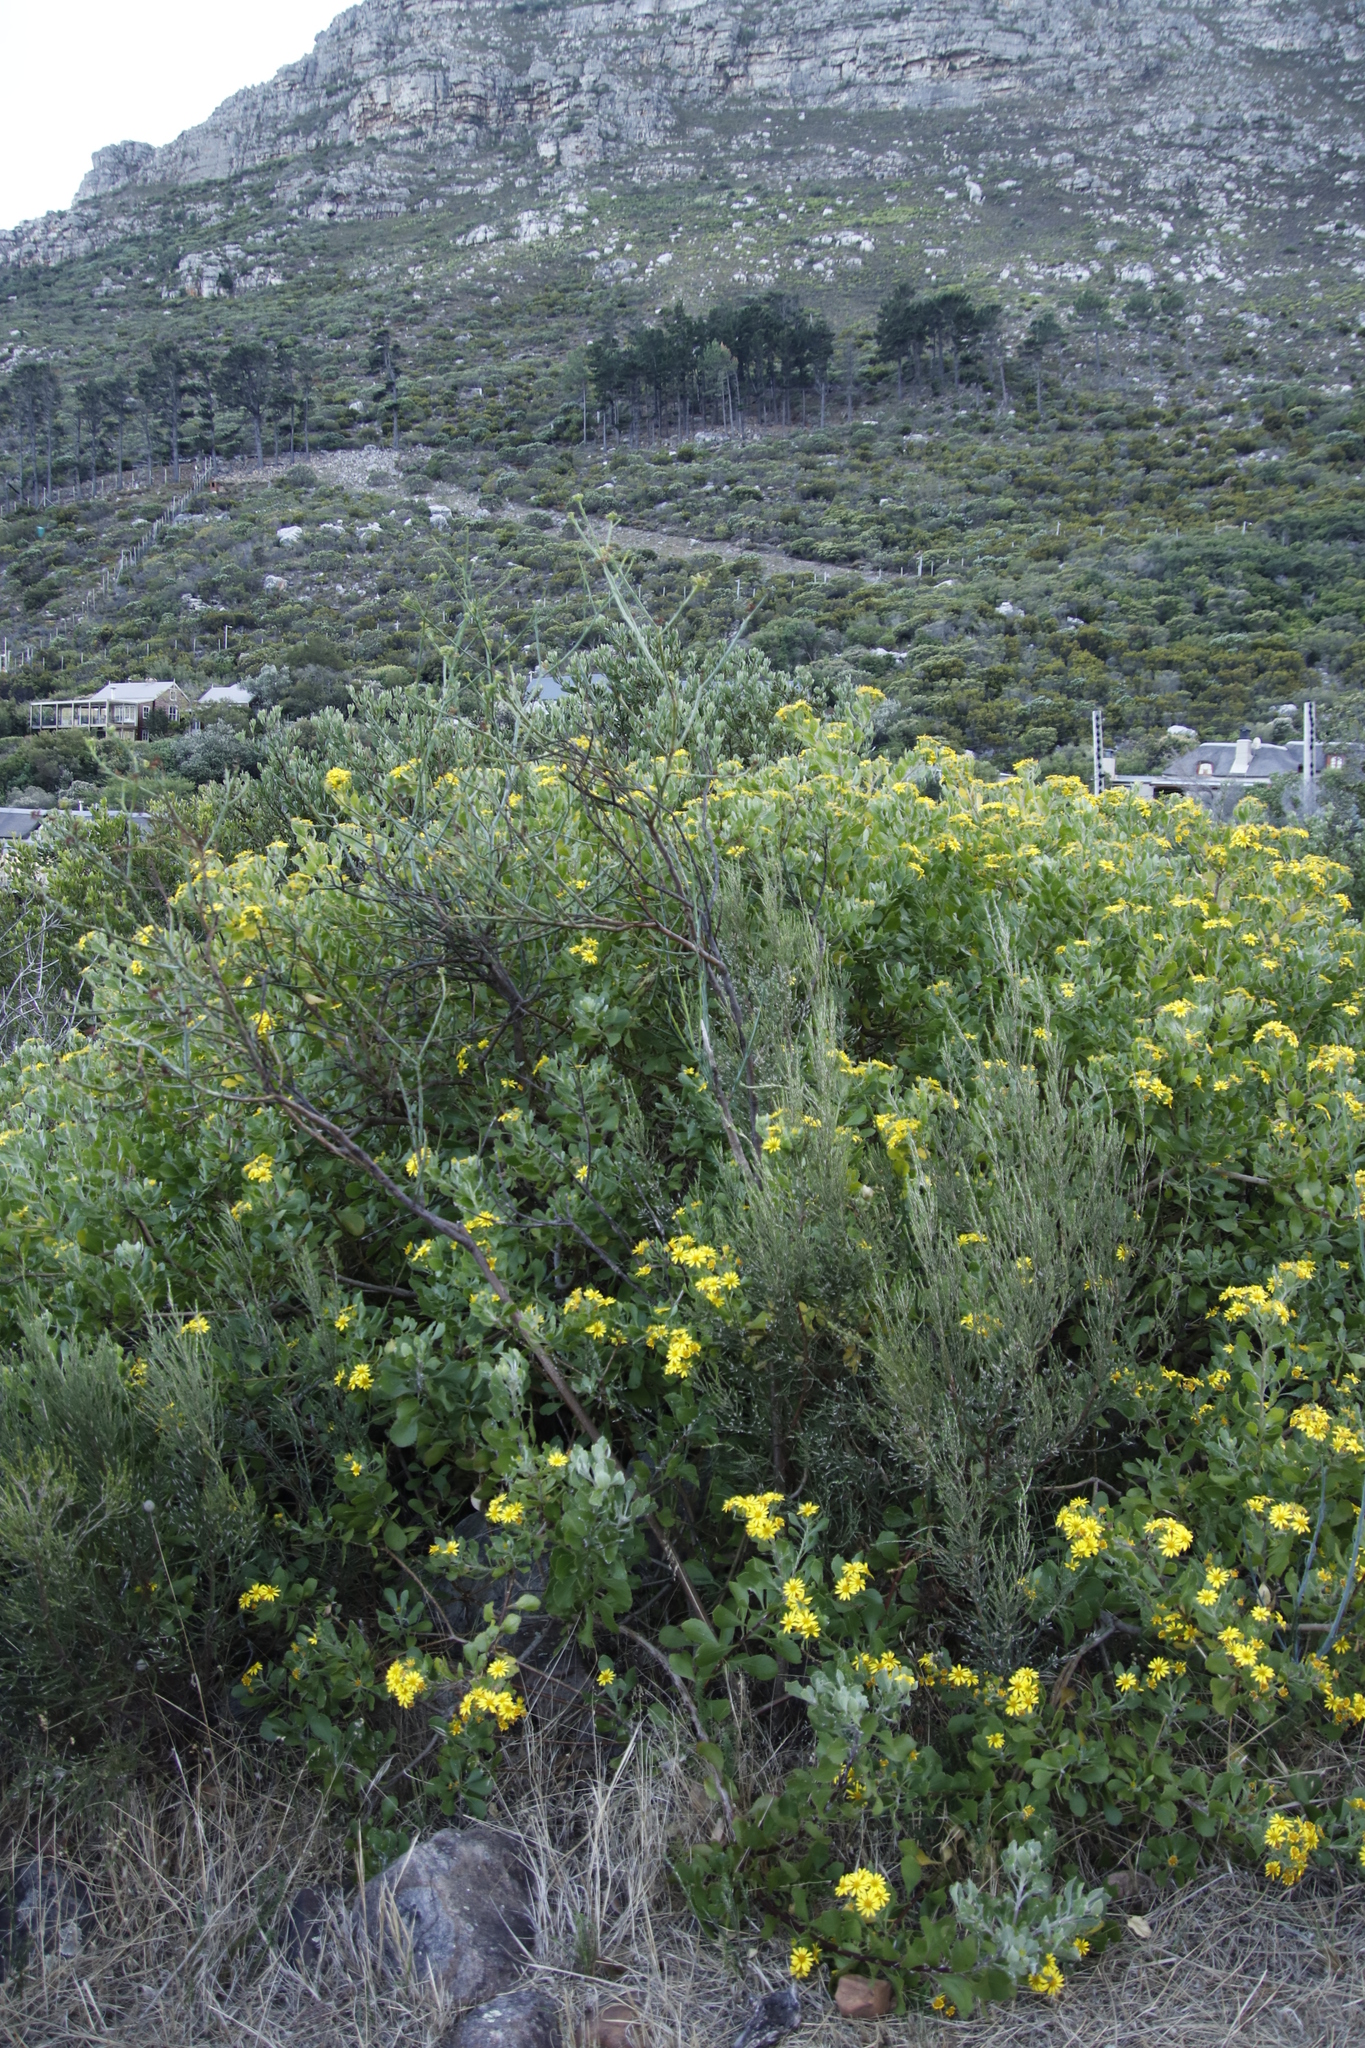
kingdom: Plantae
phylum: Tracheophyta
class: Magnoliopsida
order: Santalales
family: Thesiaceae
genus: Thesium
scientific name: Thesium strictum
